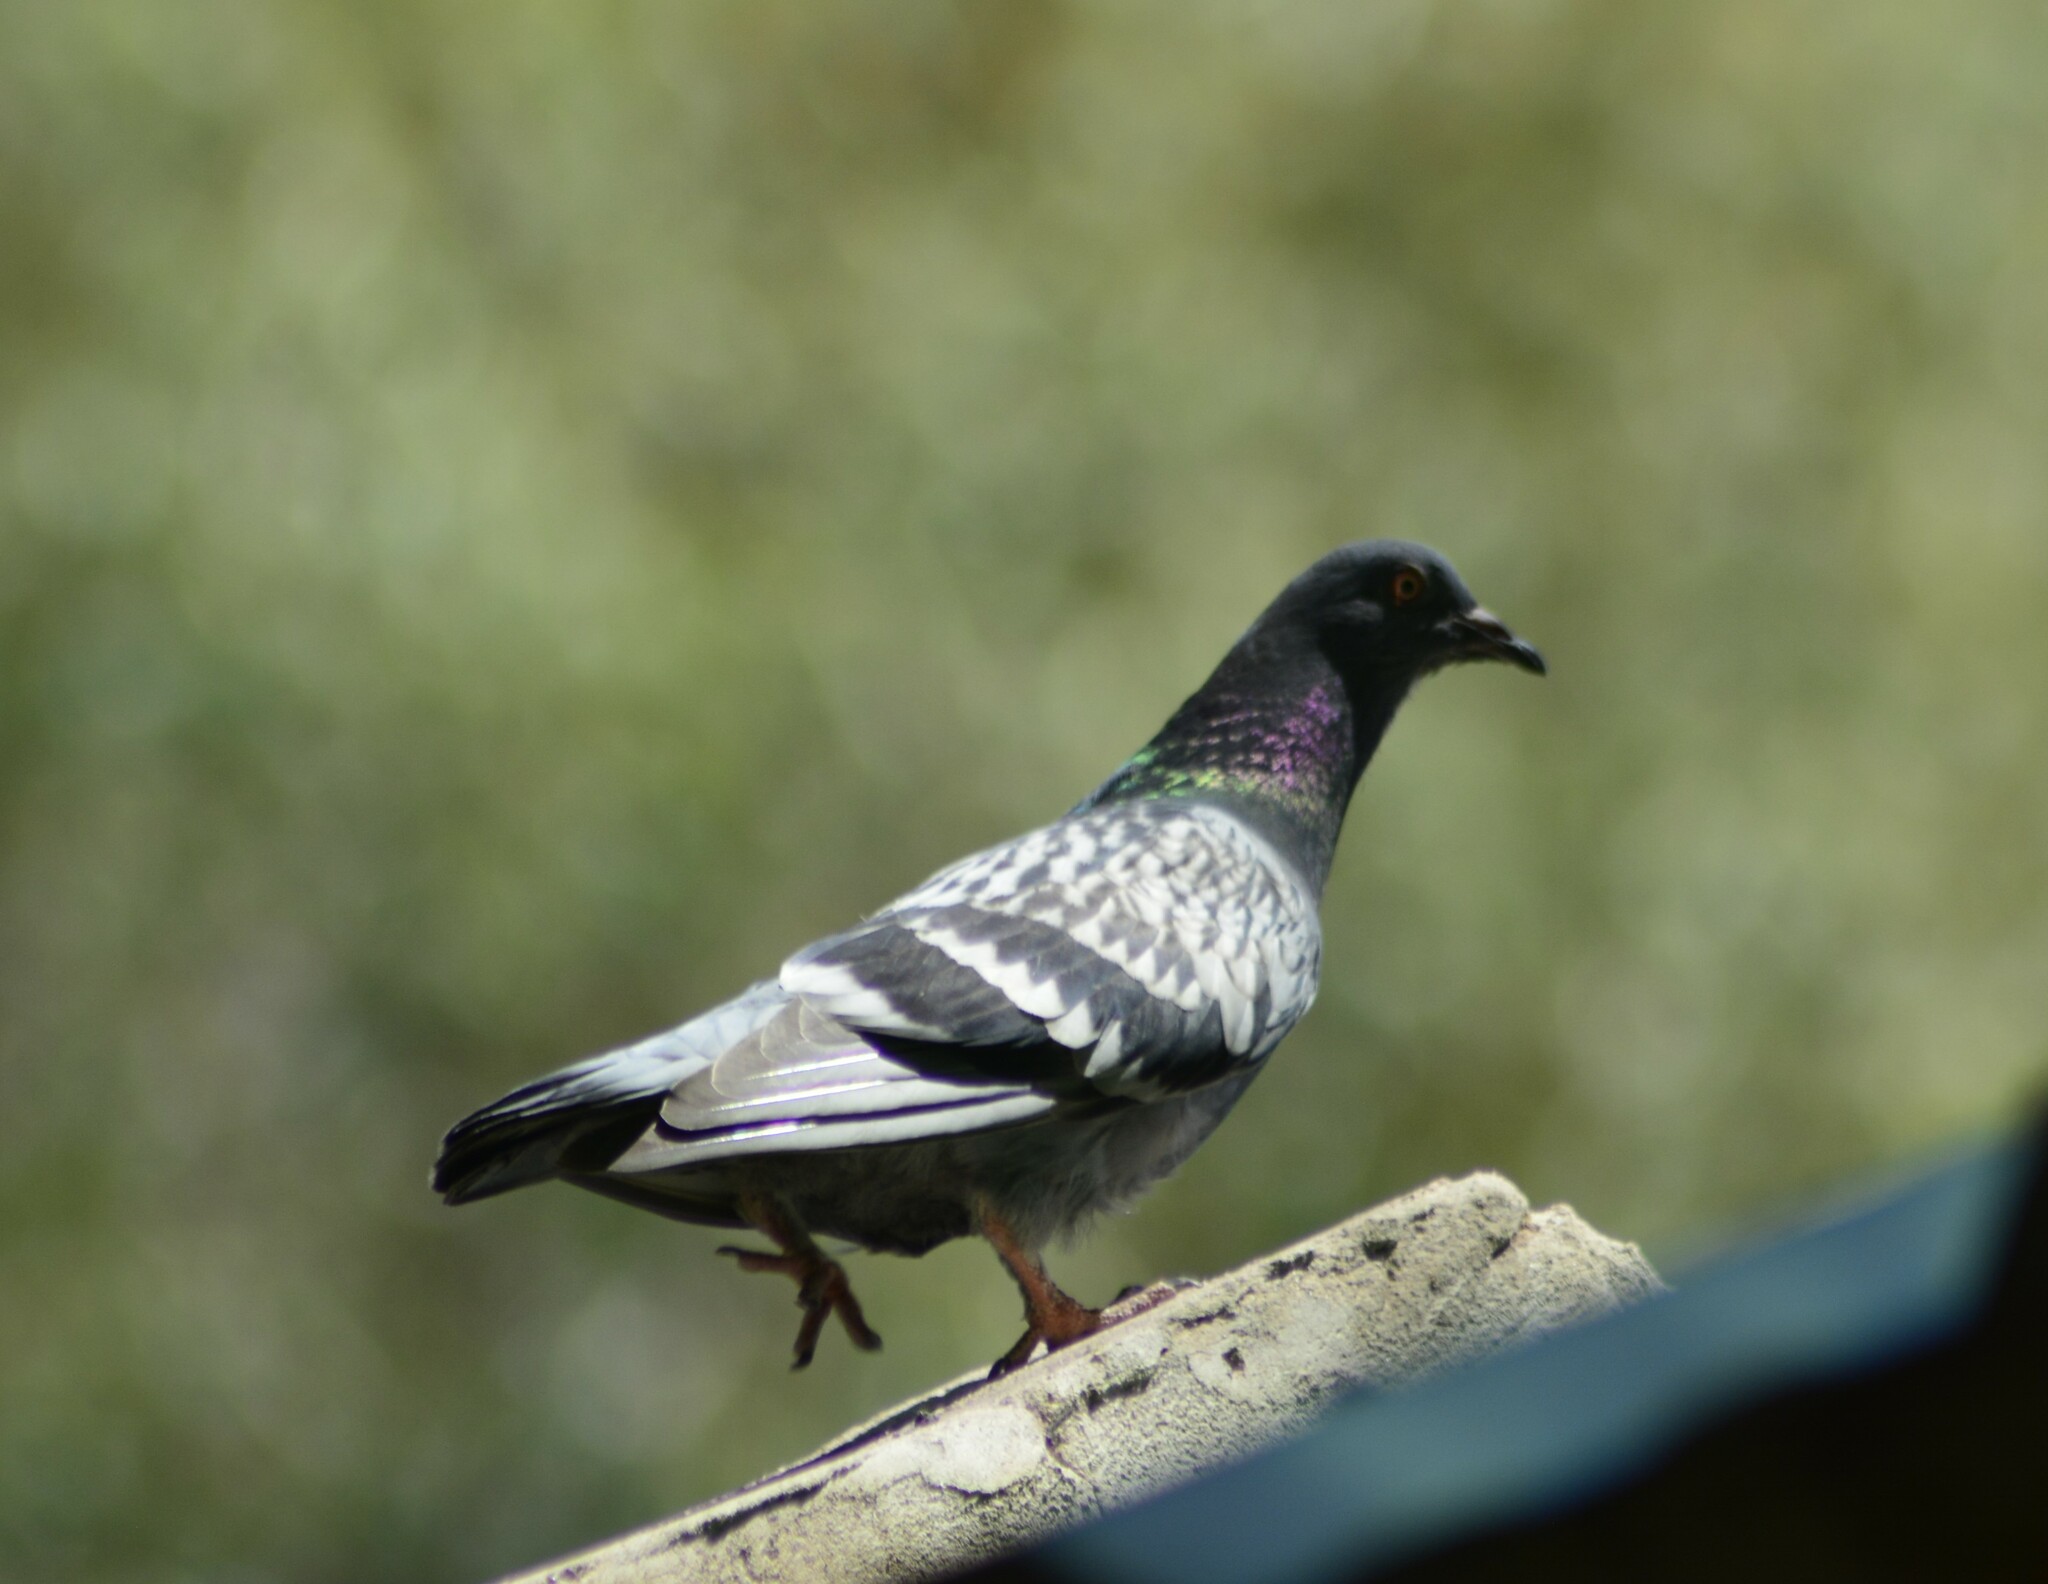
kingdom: Animalia
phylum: Chordata
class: Aves
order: Columbiformes
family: Columbidae
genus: Columba
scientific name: Columba livia
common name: Rock pigeon
